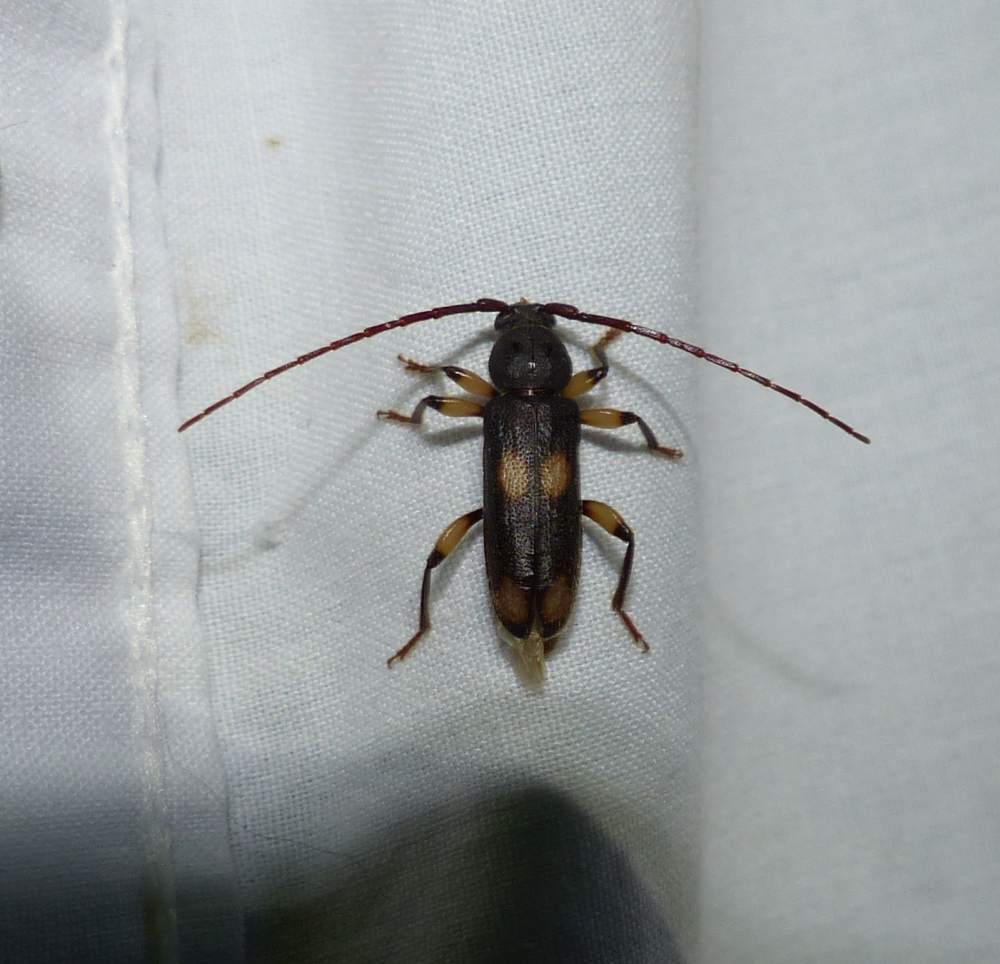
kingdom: Animalia
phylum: Arthropoda
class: Insecta
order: Coleoptera
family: Cerambycidae
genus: Tylonotus
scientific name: Tylonotus bimaculatus
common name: Ash and privet borer
